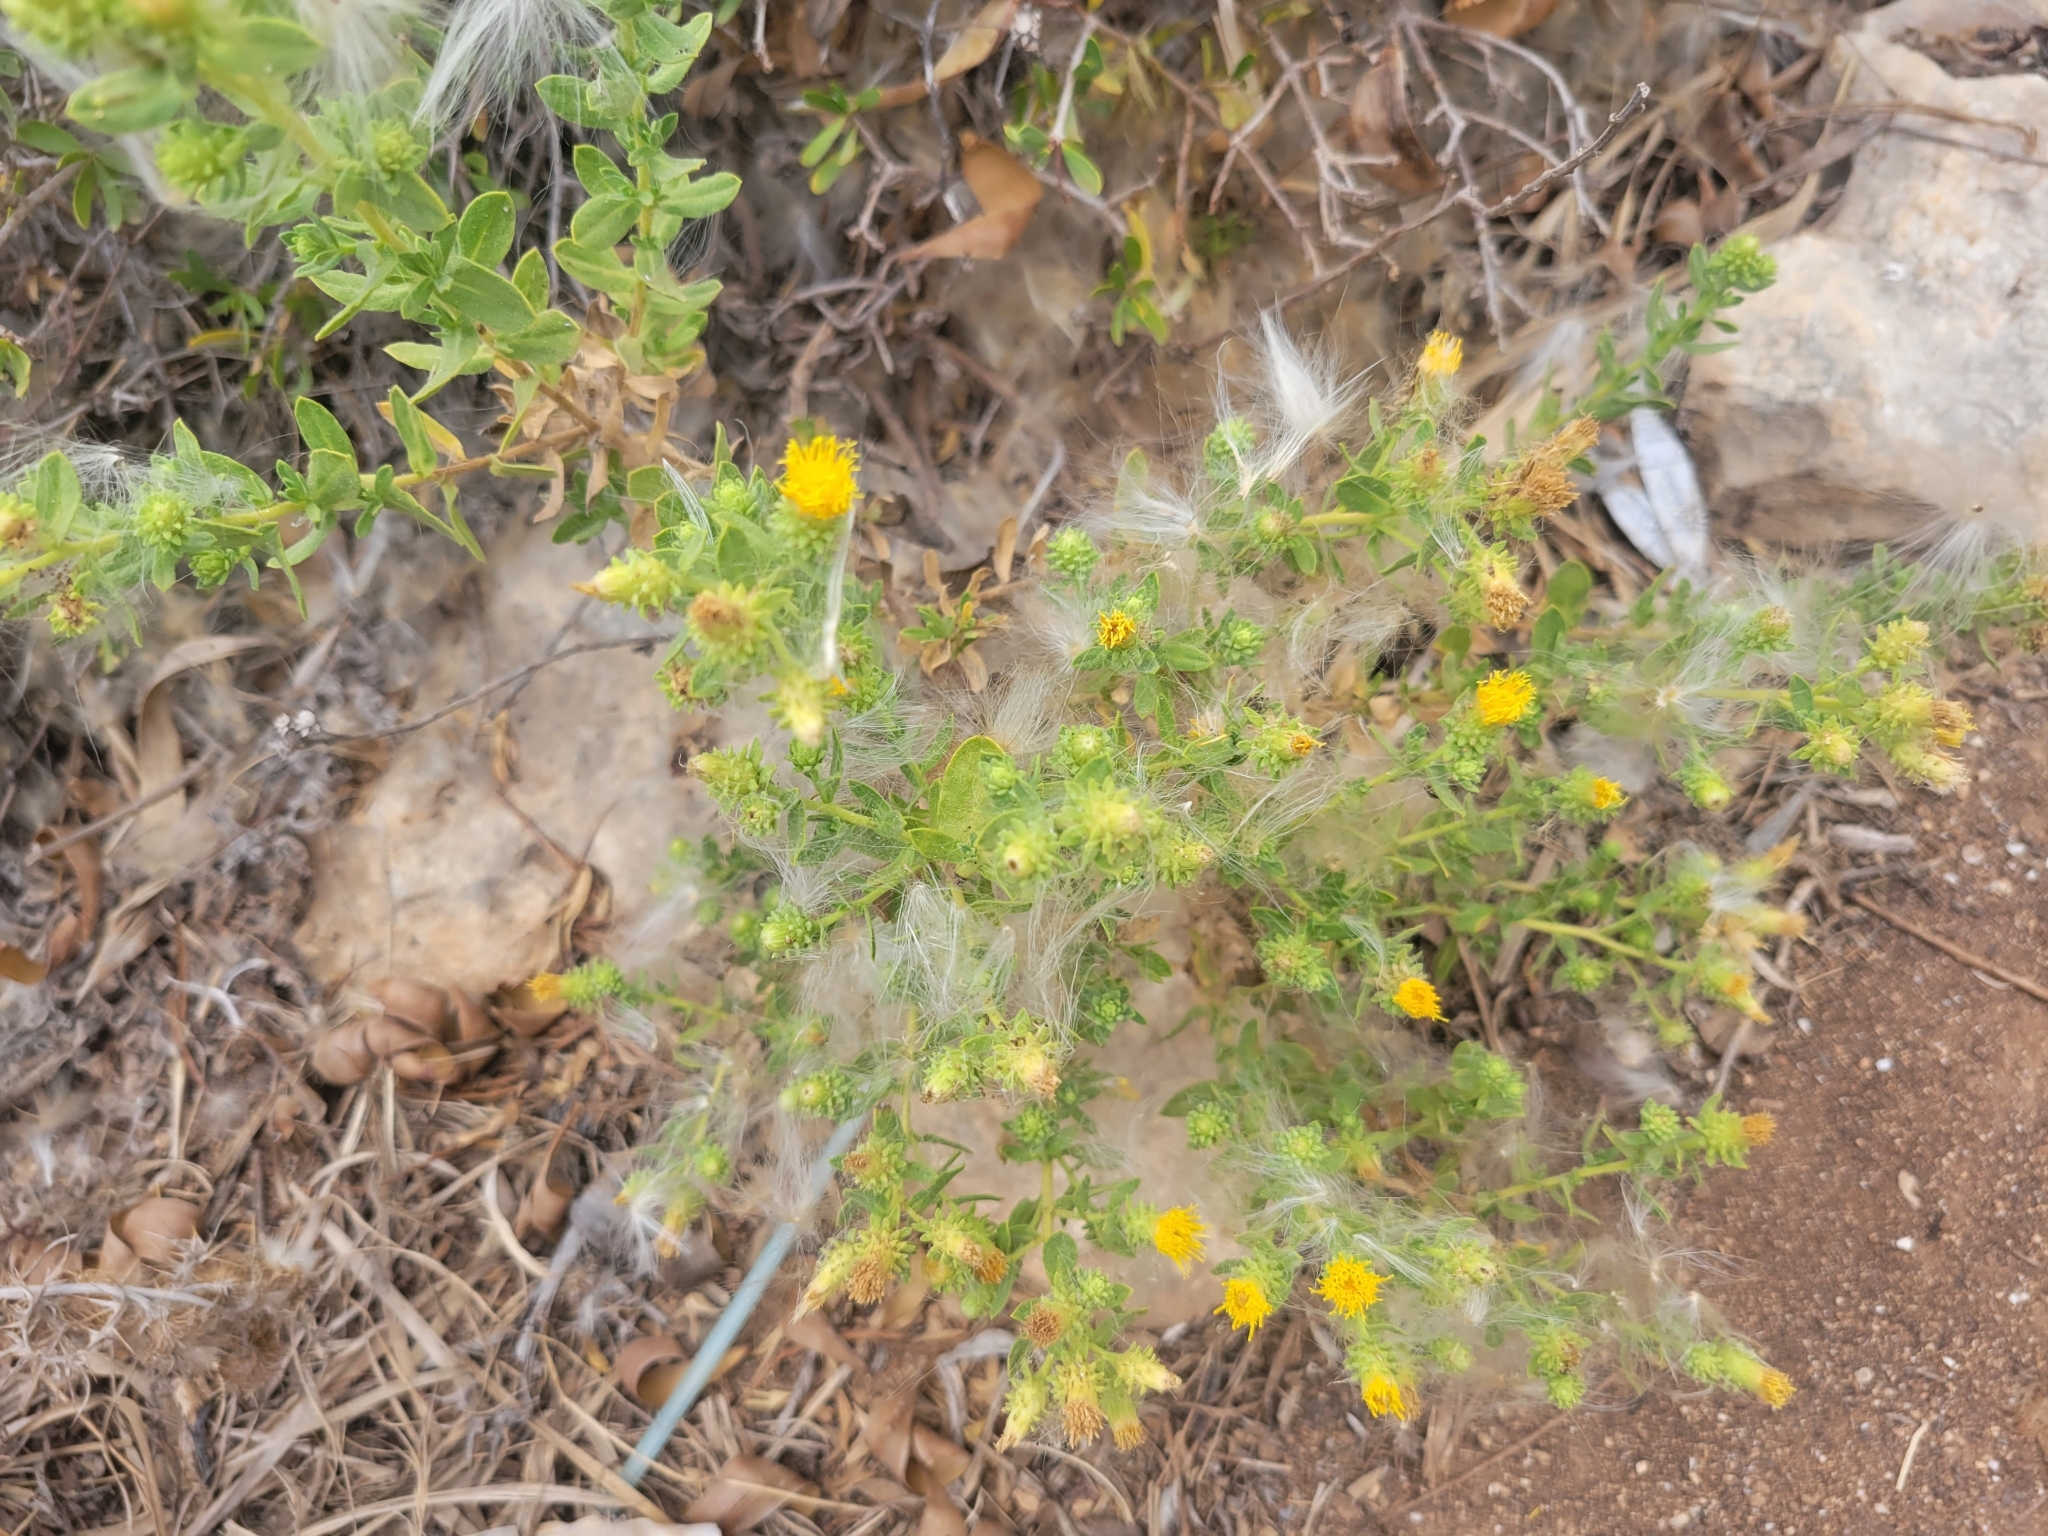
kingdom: Plantae
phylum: Tracheophyta
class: Magnoliopsida
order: Asterales
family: Asteraceae
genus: Chiliadenus
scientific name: Chiliadenus bocconei
